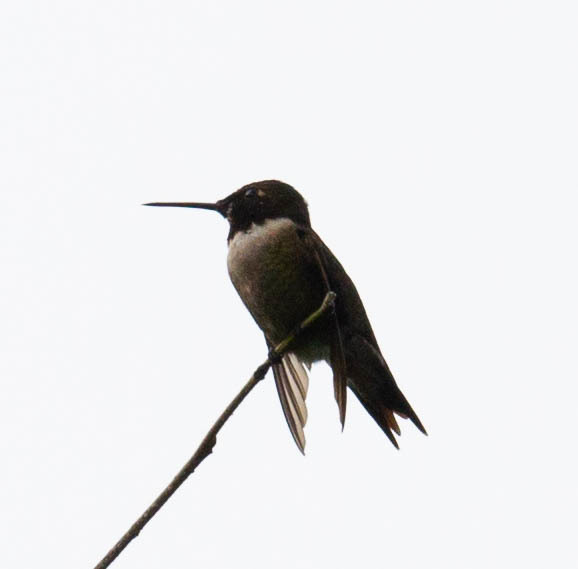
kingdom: Animalia
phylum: Chordata
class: Aves
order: Apodiformes
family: Trochilidae
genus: Archilochus
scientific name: Archilochus colubris
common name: Ruby-throated hummingbird
